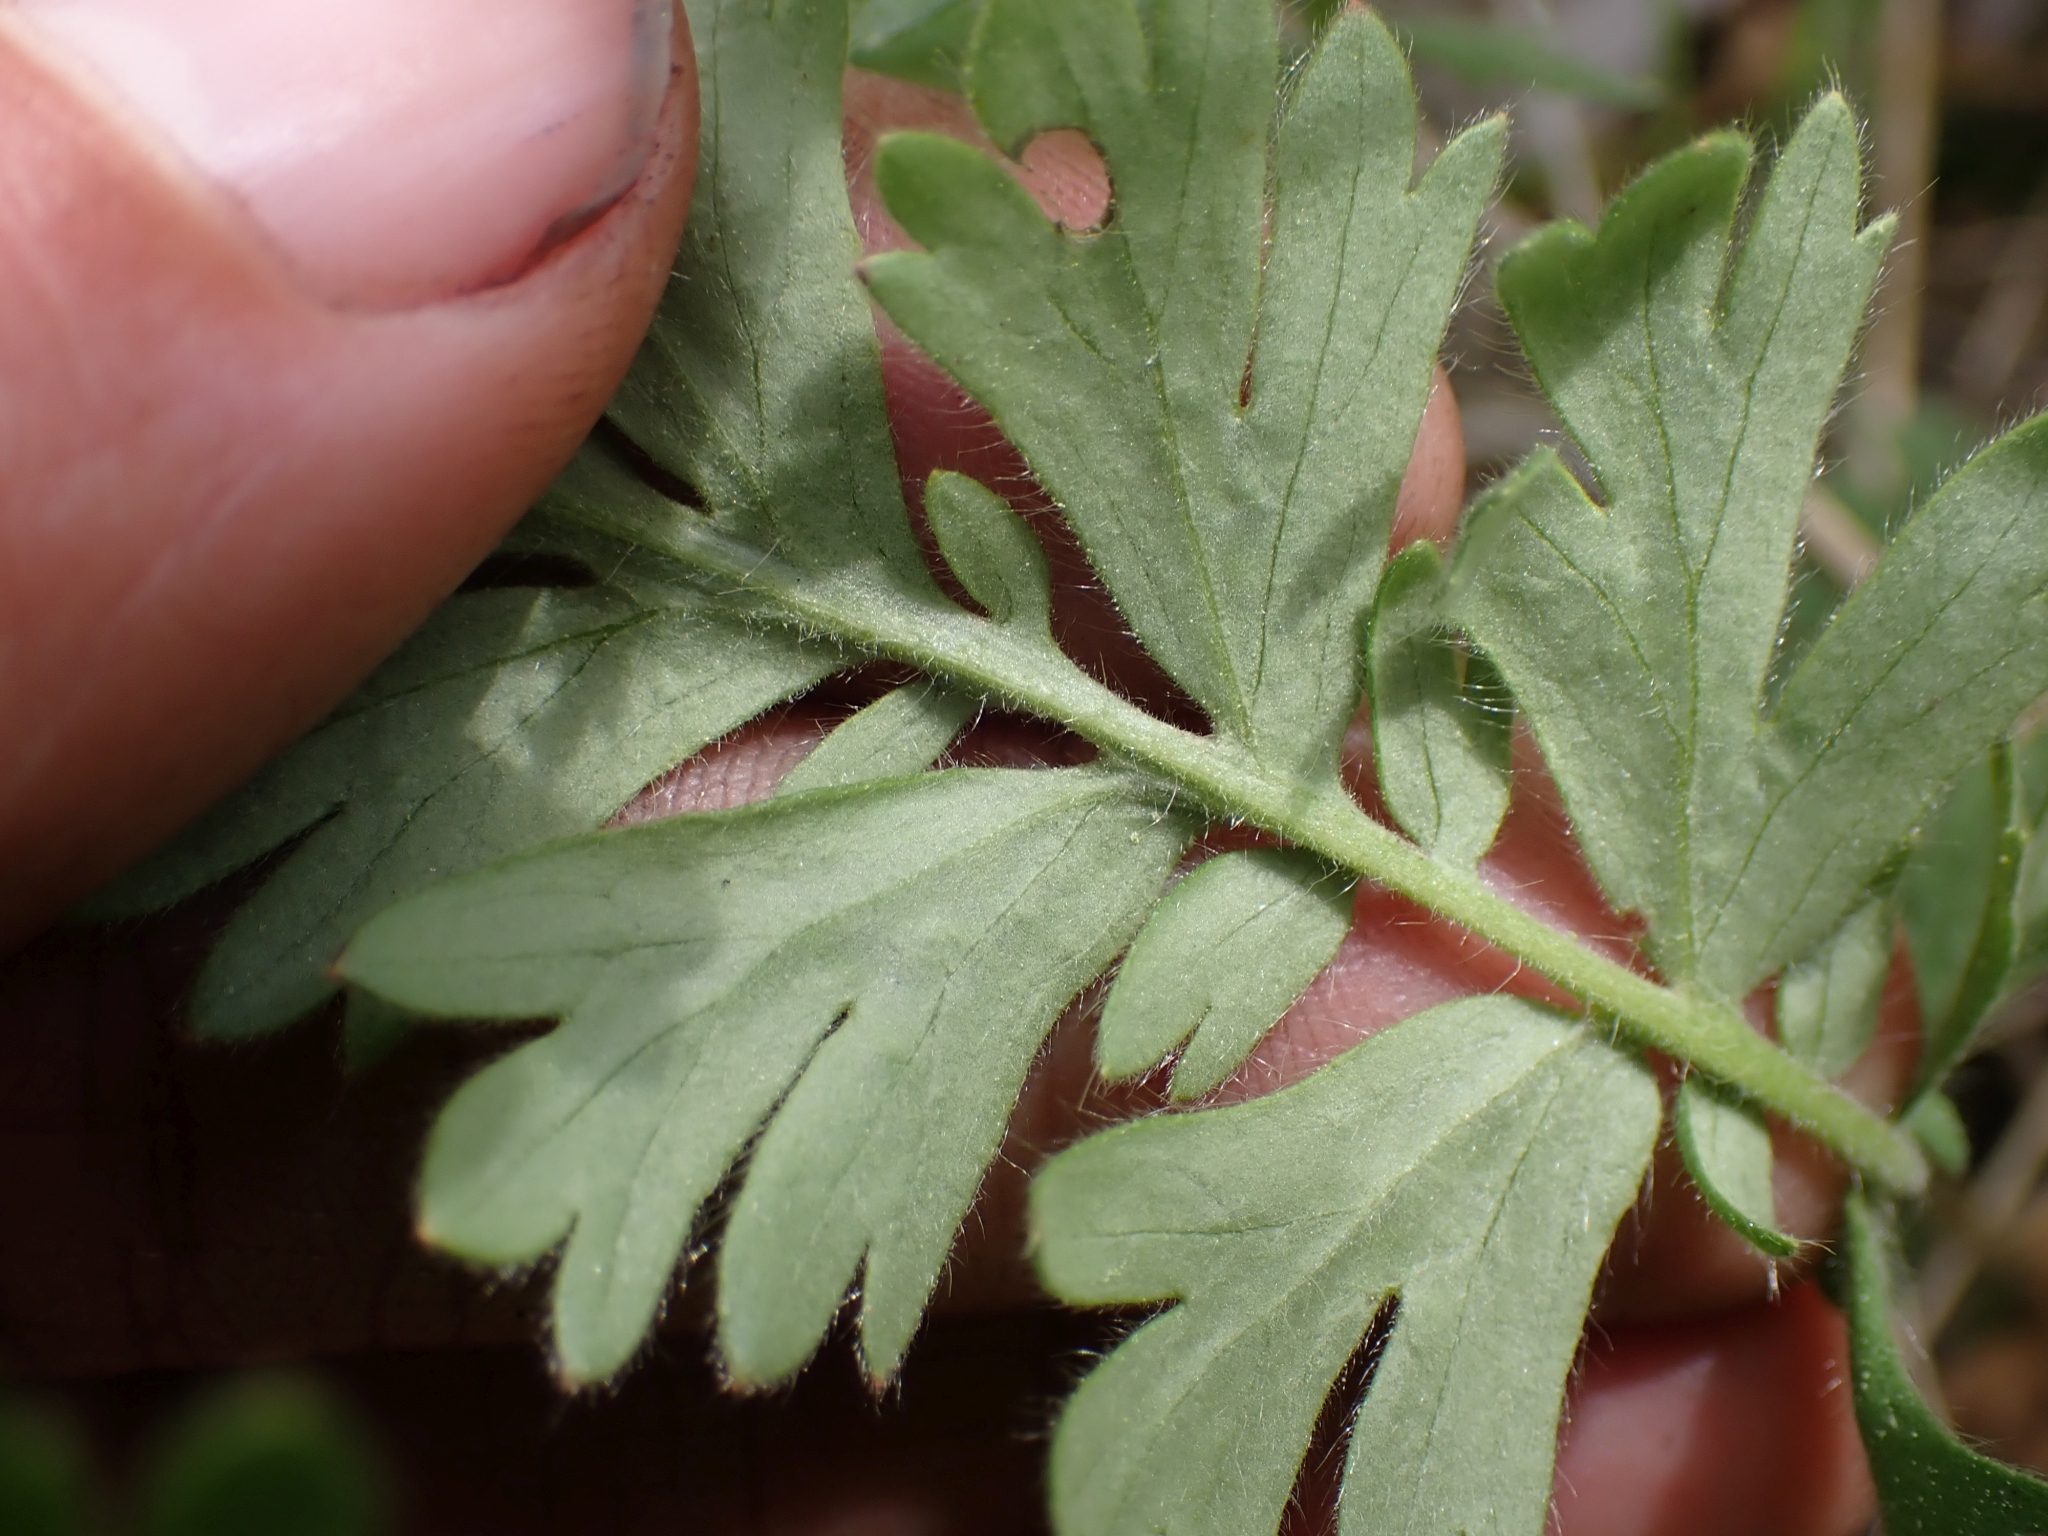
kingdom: Plantae
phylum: Tracheophyta
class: Magnoliopsida
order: Rosales
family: Rosaceae
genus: Geum
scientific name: Geum triflorum
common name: Old man's whiskers
